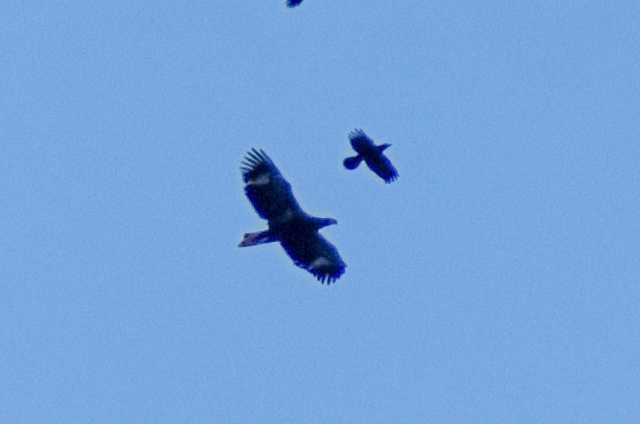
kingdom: Animalia
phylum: Chordata
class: Aves
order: Accipitriformes
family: Accipitridae
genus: Haliaeetus
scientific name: Haliaeetus pelagicus
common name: Steller's sea eagle
